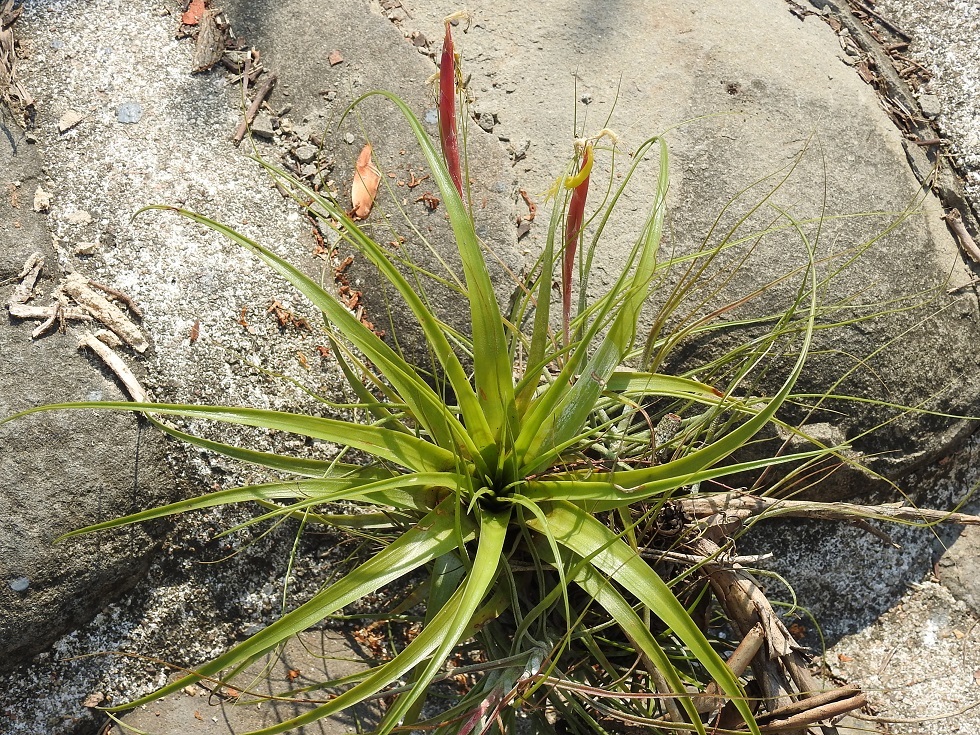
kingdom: Plantae
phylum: Tracheophyta
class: Liliopsida
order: Poales
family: Bromeliaceae
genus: Tillandsia
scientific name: Tillandsia schiedeana
